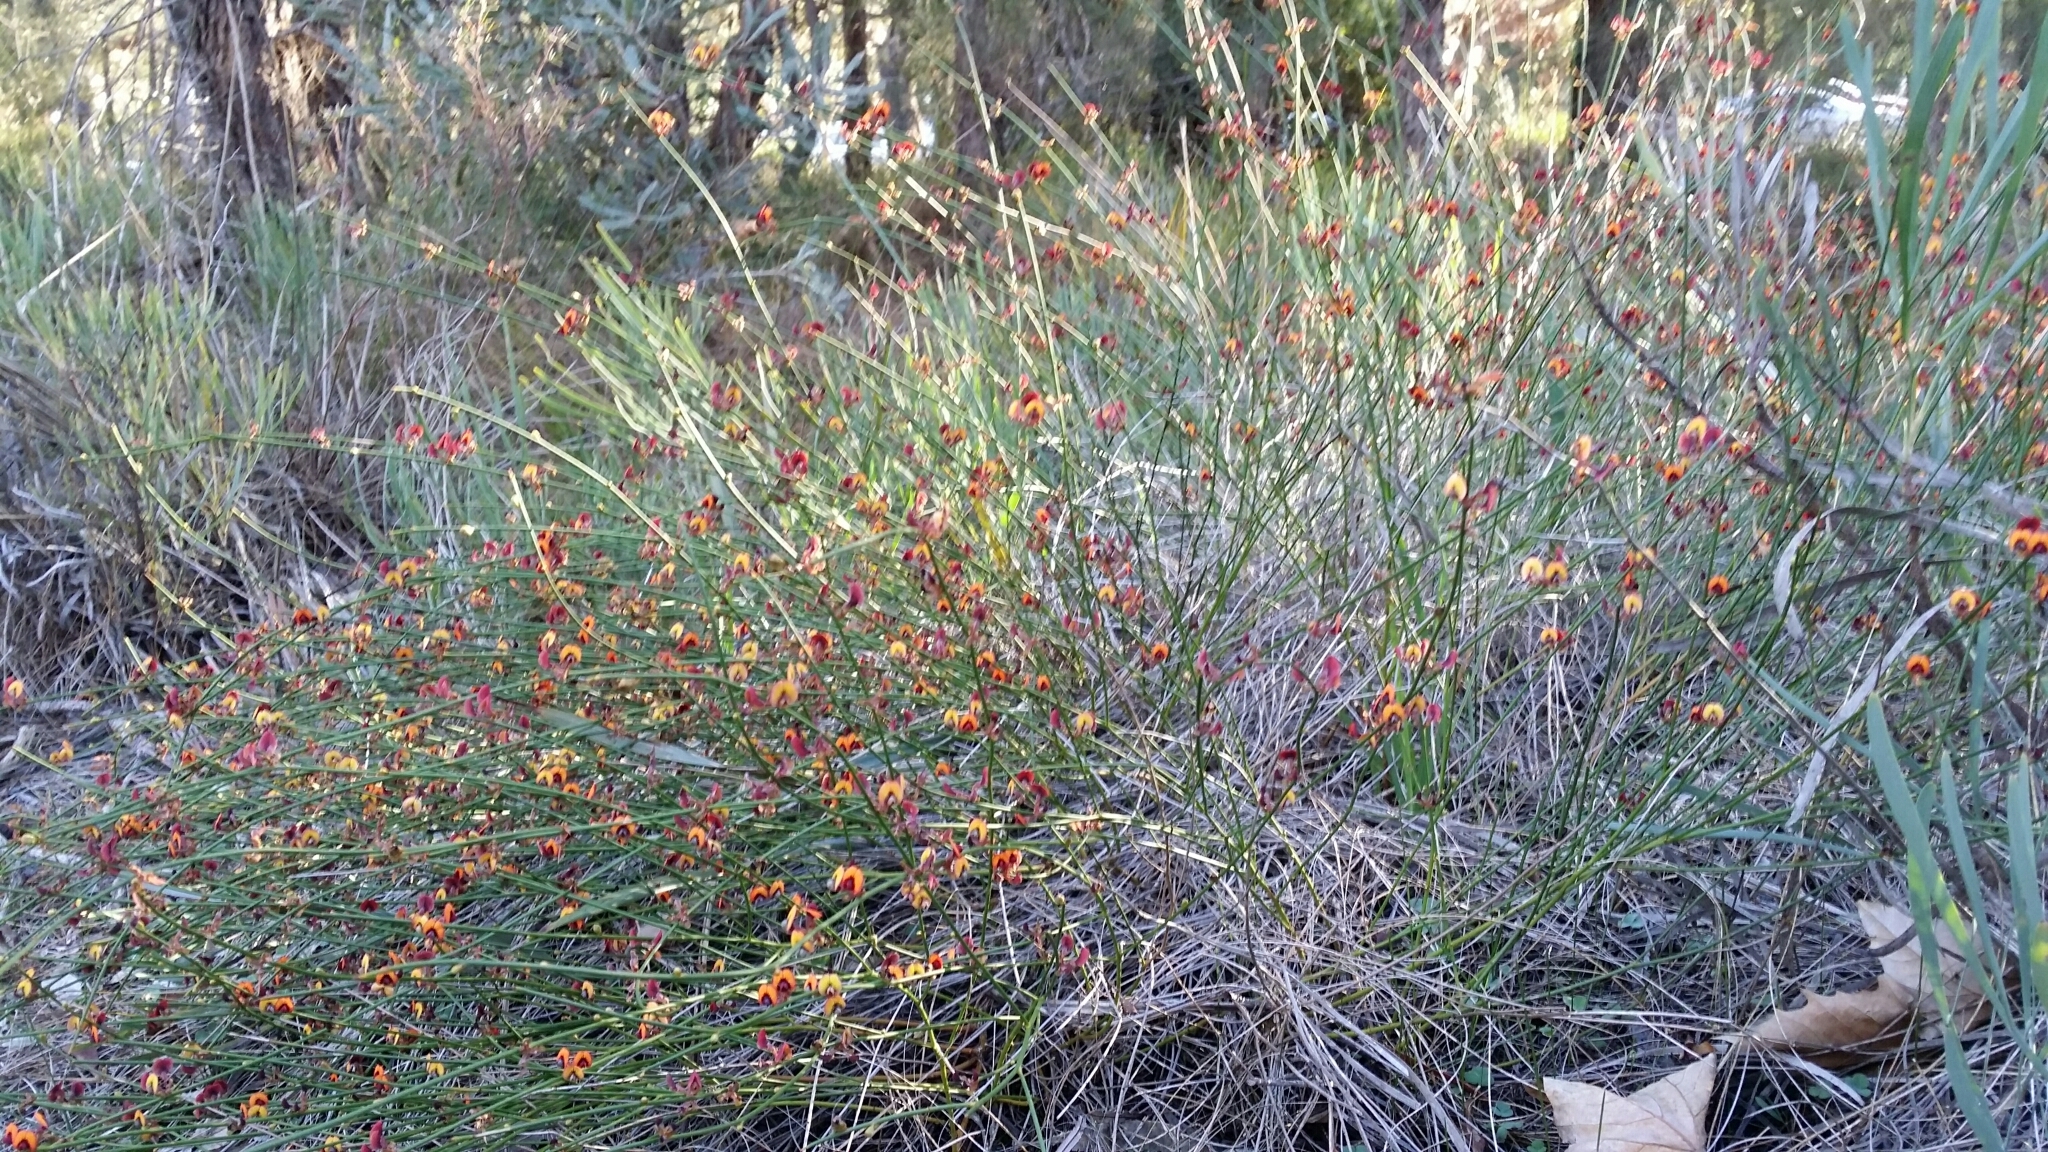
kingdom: Plantae
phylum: Tracheophyta
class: Magnoliopsida
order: Fabales
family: Fabaceae
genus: Daviesia
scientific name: Daviesia triflora
